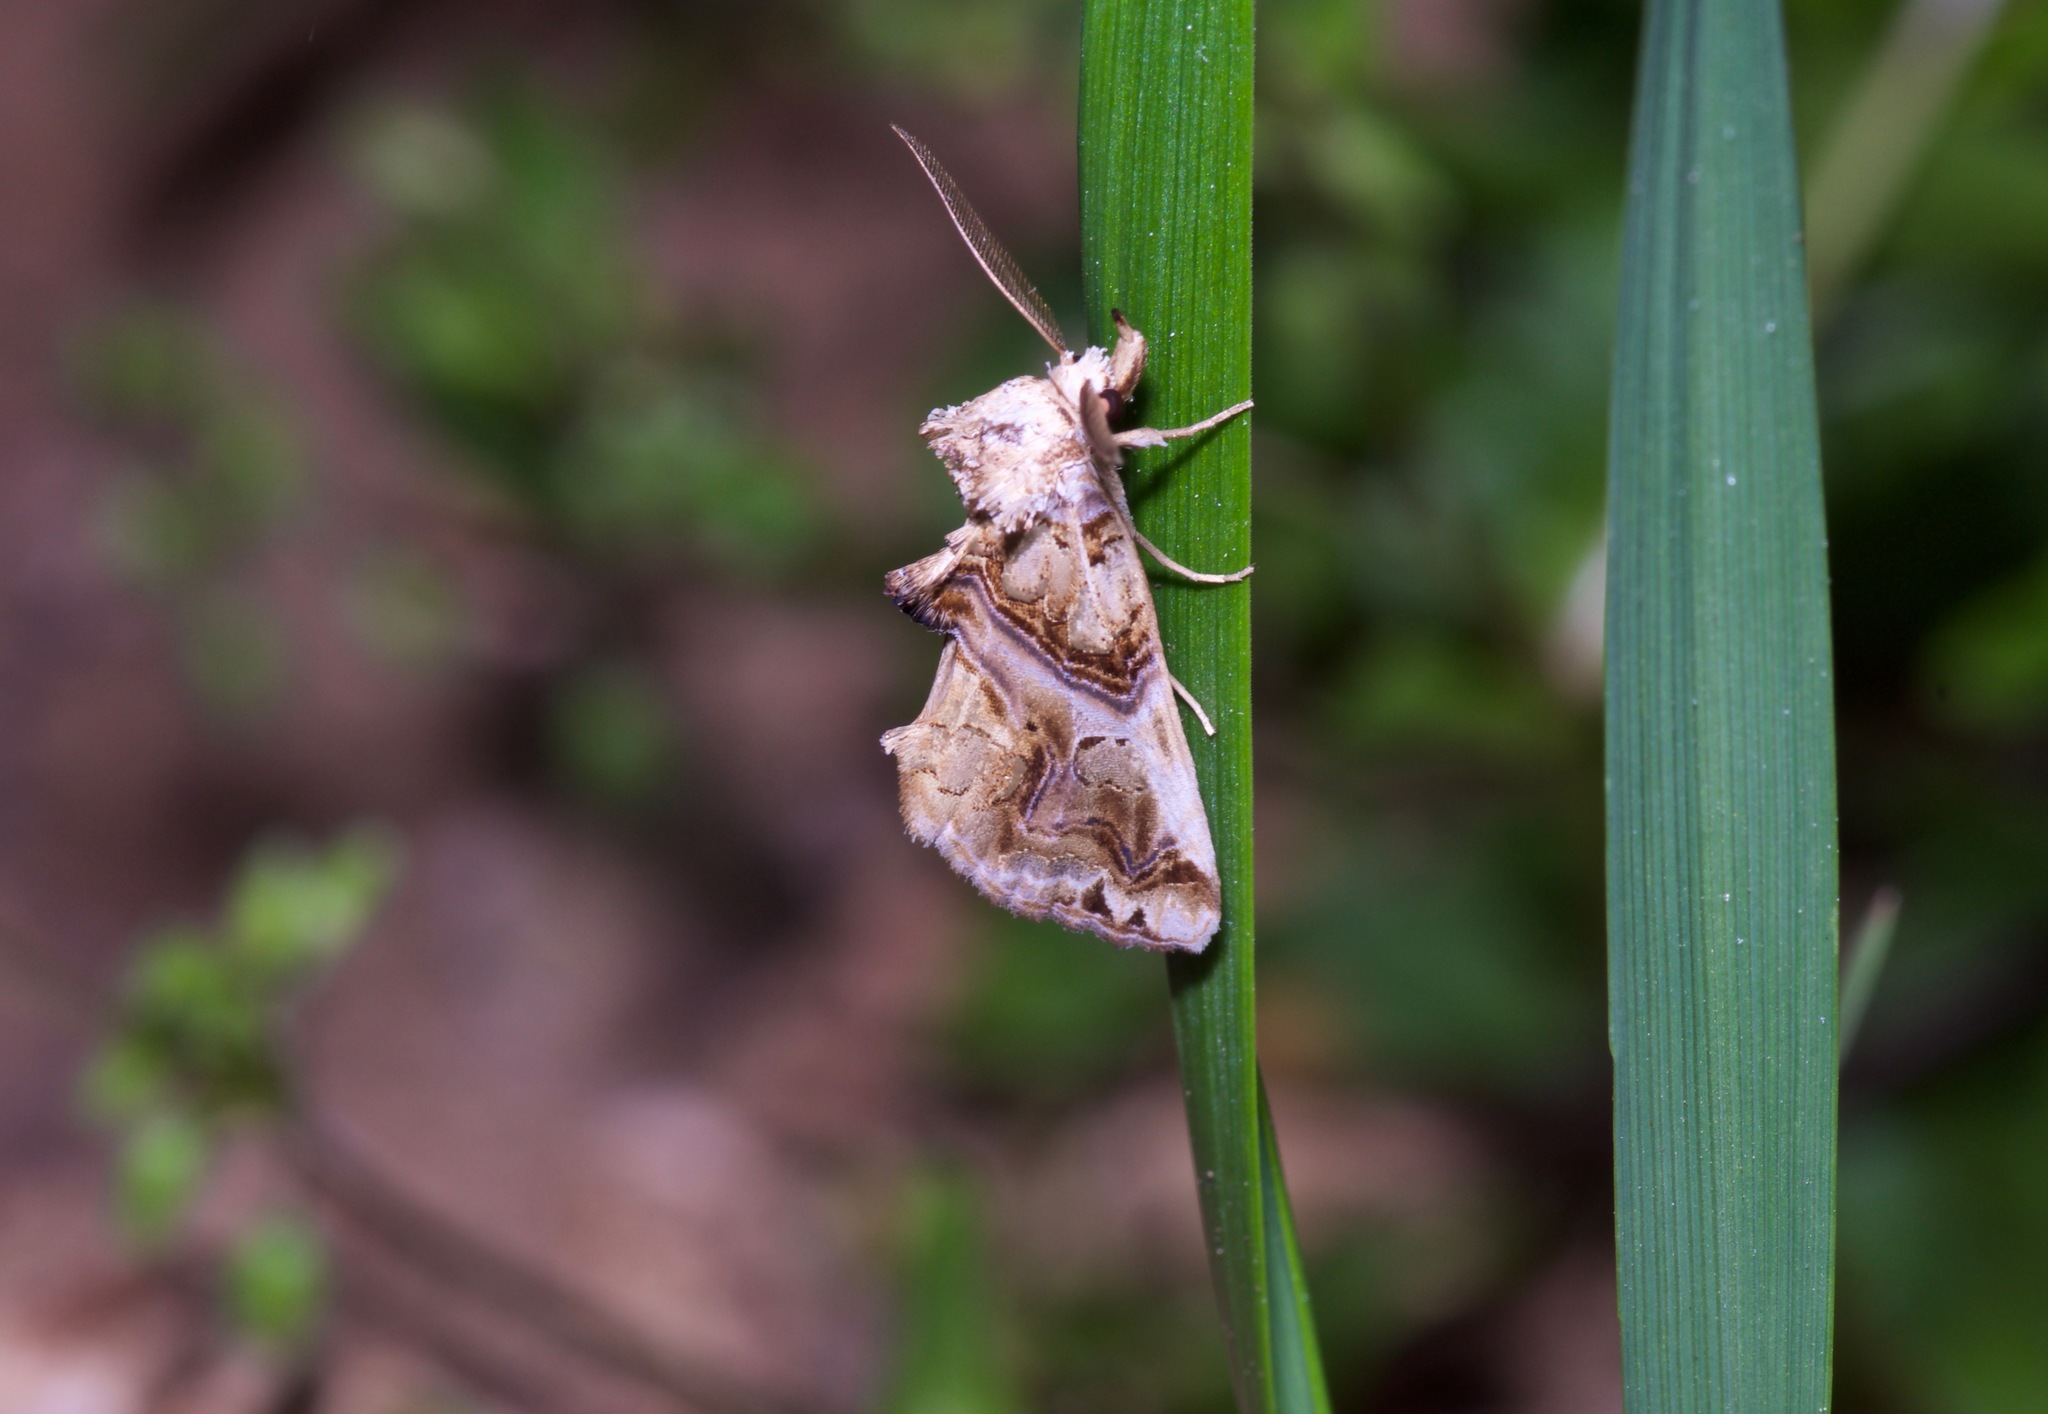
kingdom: Animalia
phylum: Arthropoda
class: Insecta
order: Lepidoptera
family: Erebidae
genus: Plusiodonta
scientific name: Plusiodonta compressipalpis
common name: Moonseed moth
